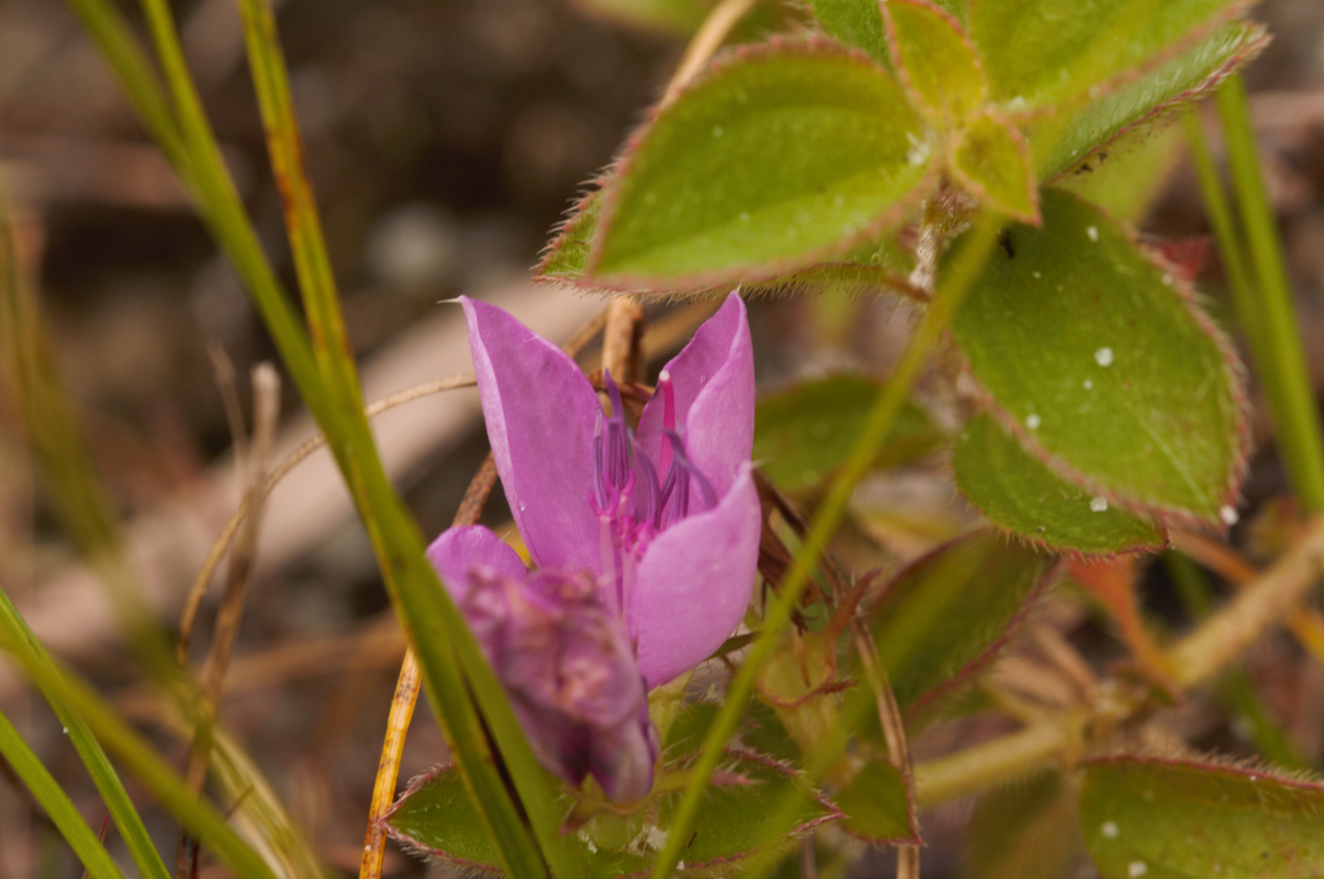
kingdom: Plantae
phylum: Tracheophyta
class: Magnoliopsida
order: Myrtales
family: Melastomataceae
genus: Rhynchanthera
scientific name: Rhynchanthera grandiflora
